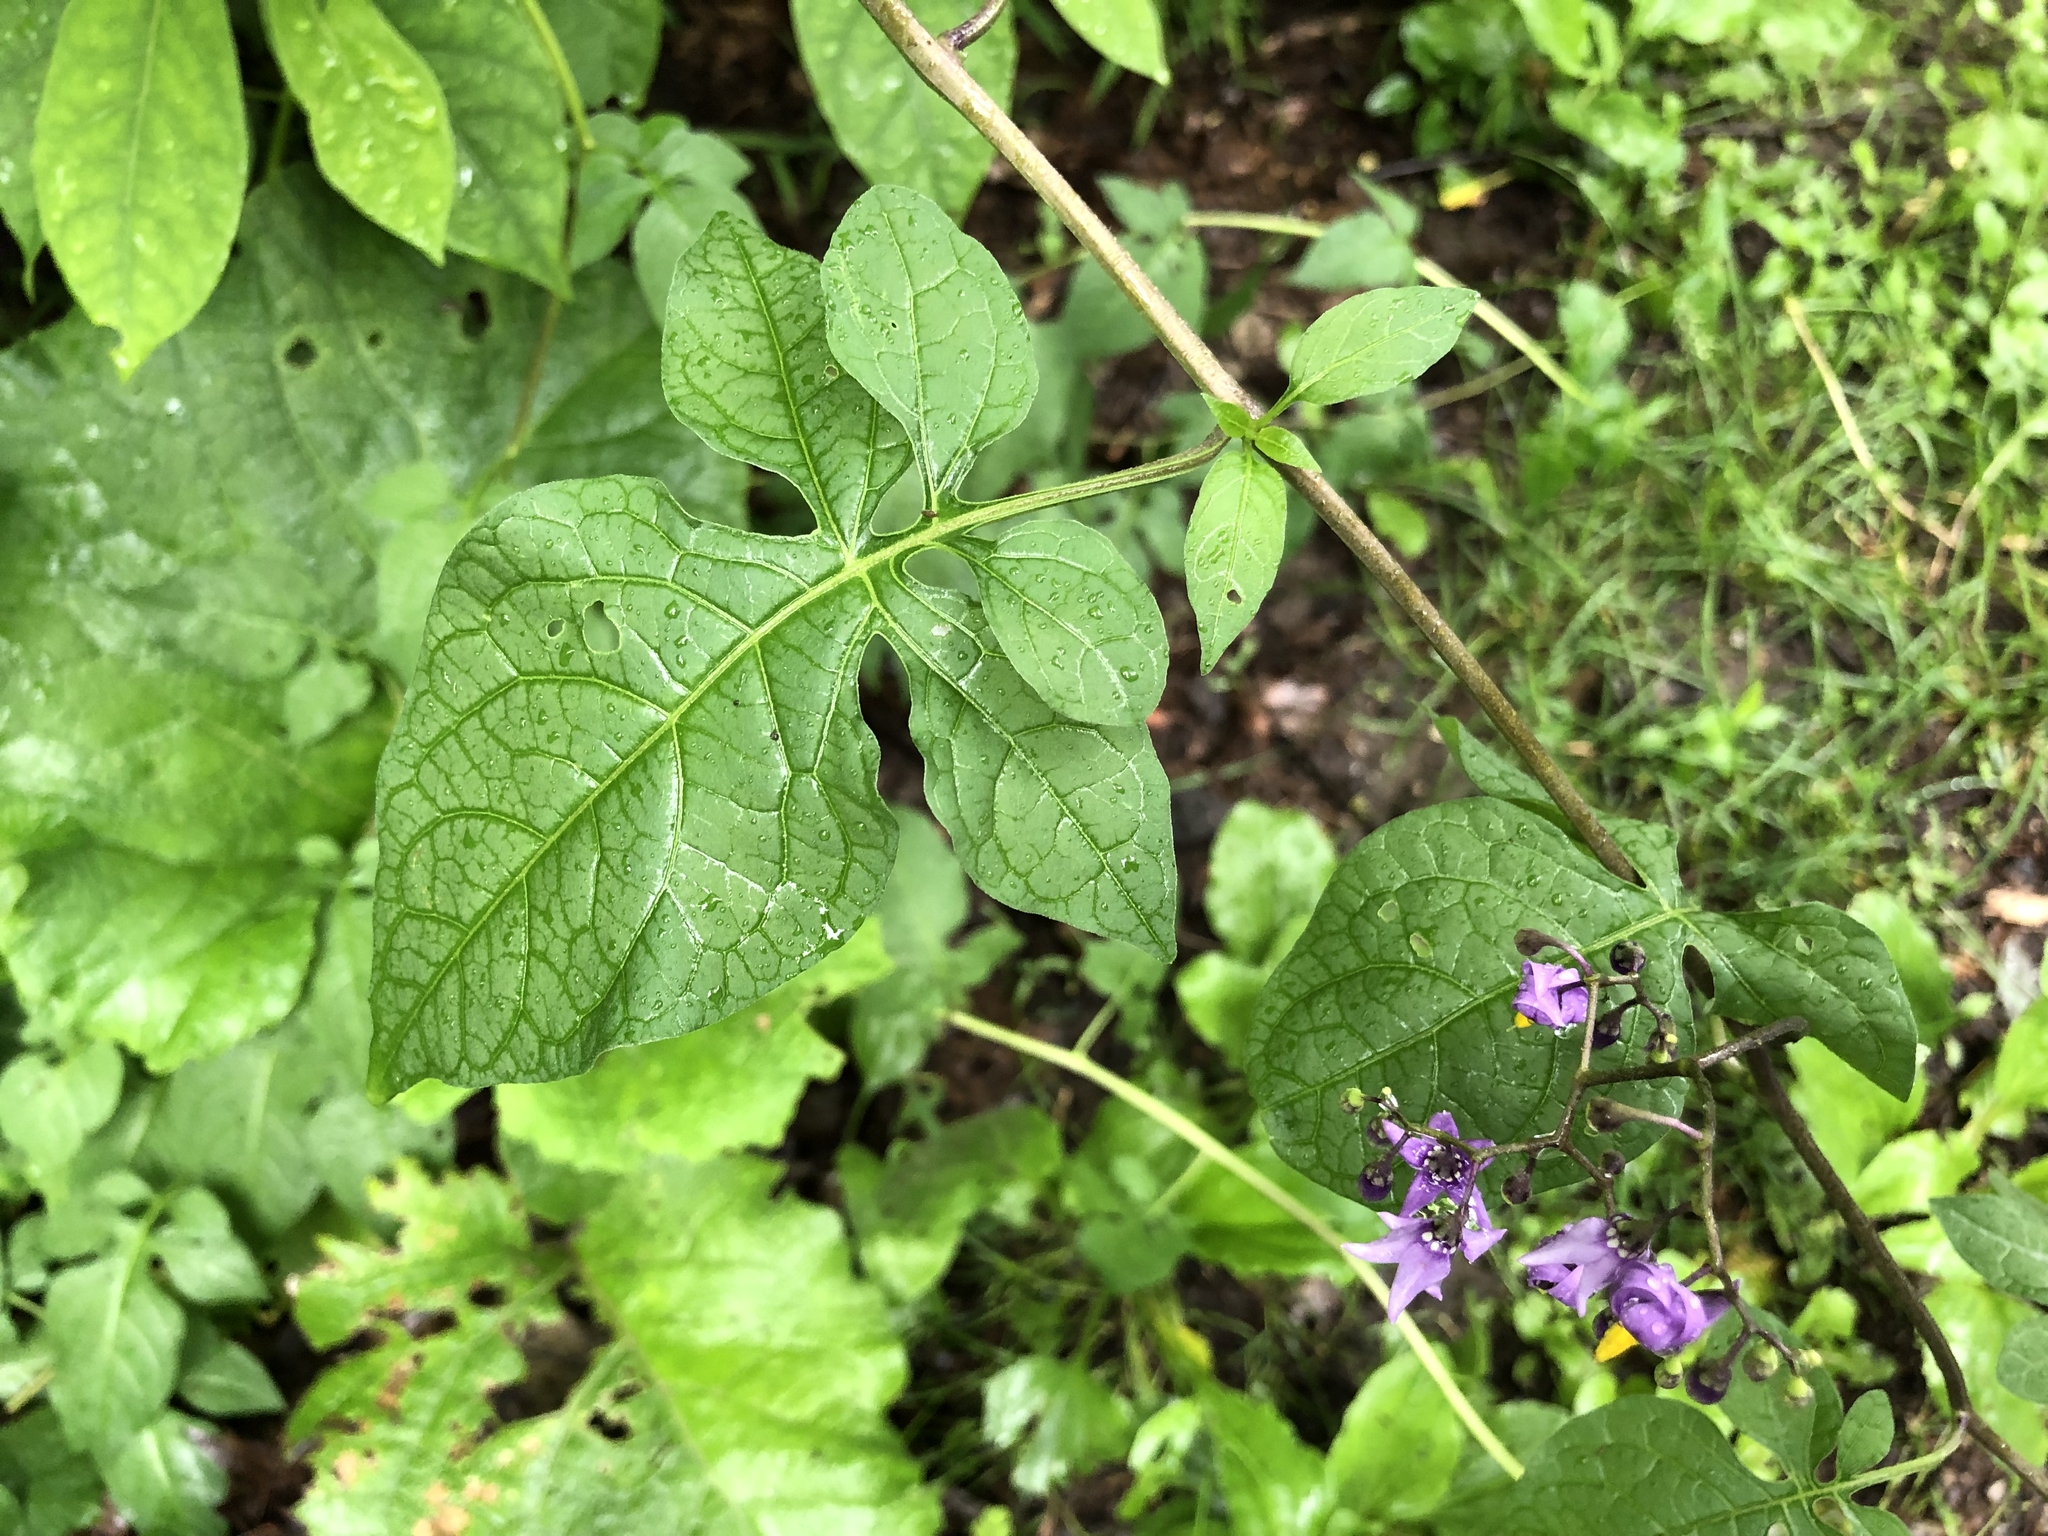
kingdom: Plantae
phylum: Tracheophyta
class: Magnoliopsida
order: Solanales
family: Solanaceae
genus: Solanum
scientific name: Solanum dulcamara
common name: Climbing nightshade
